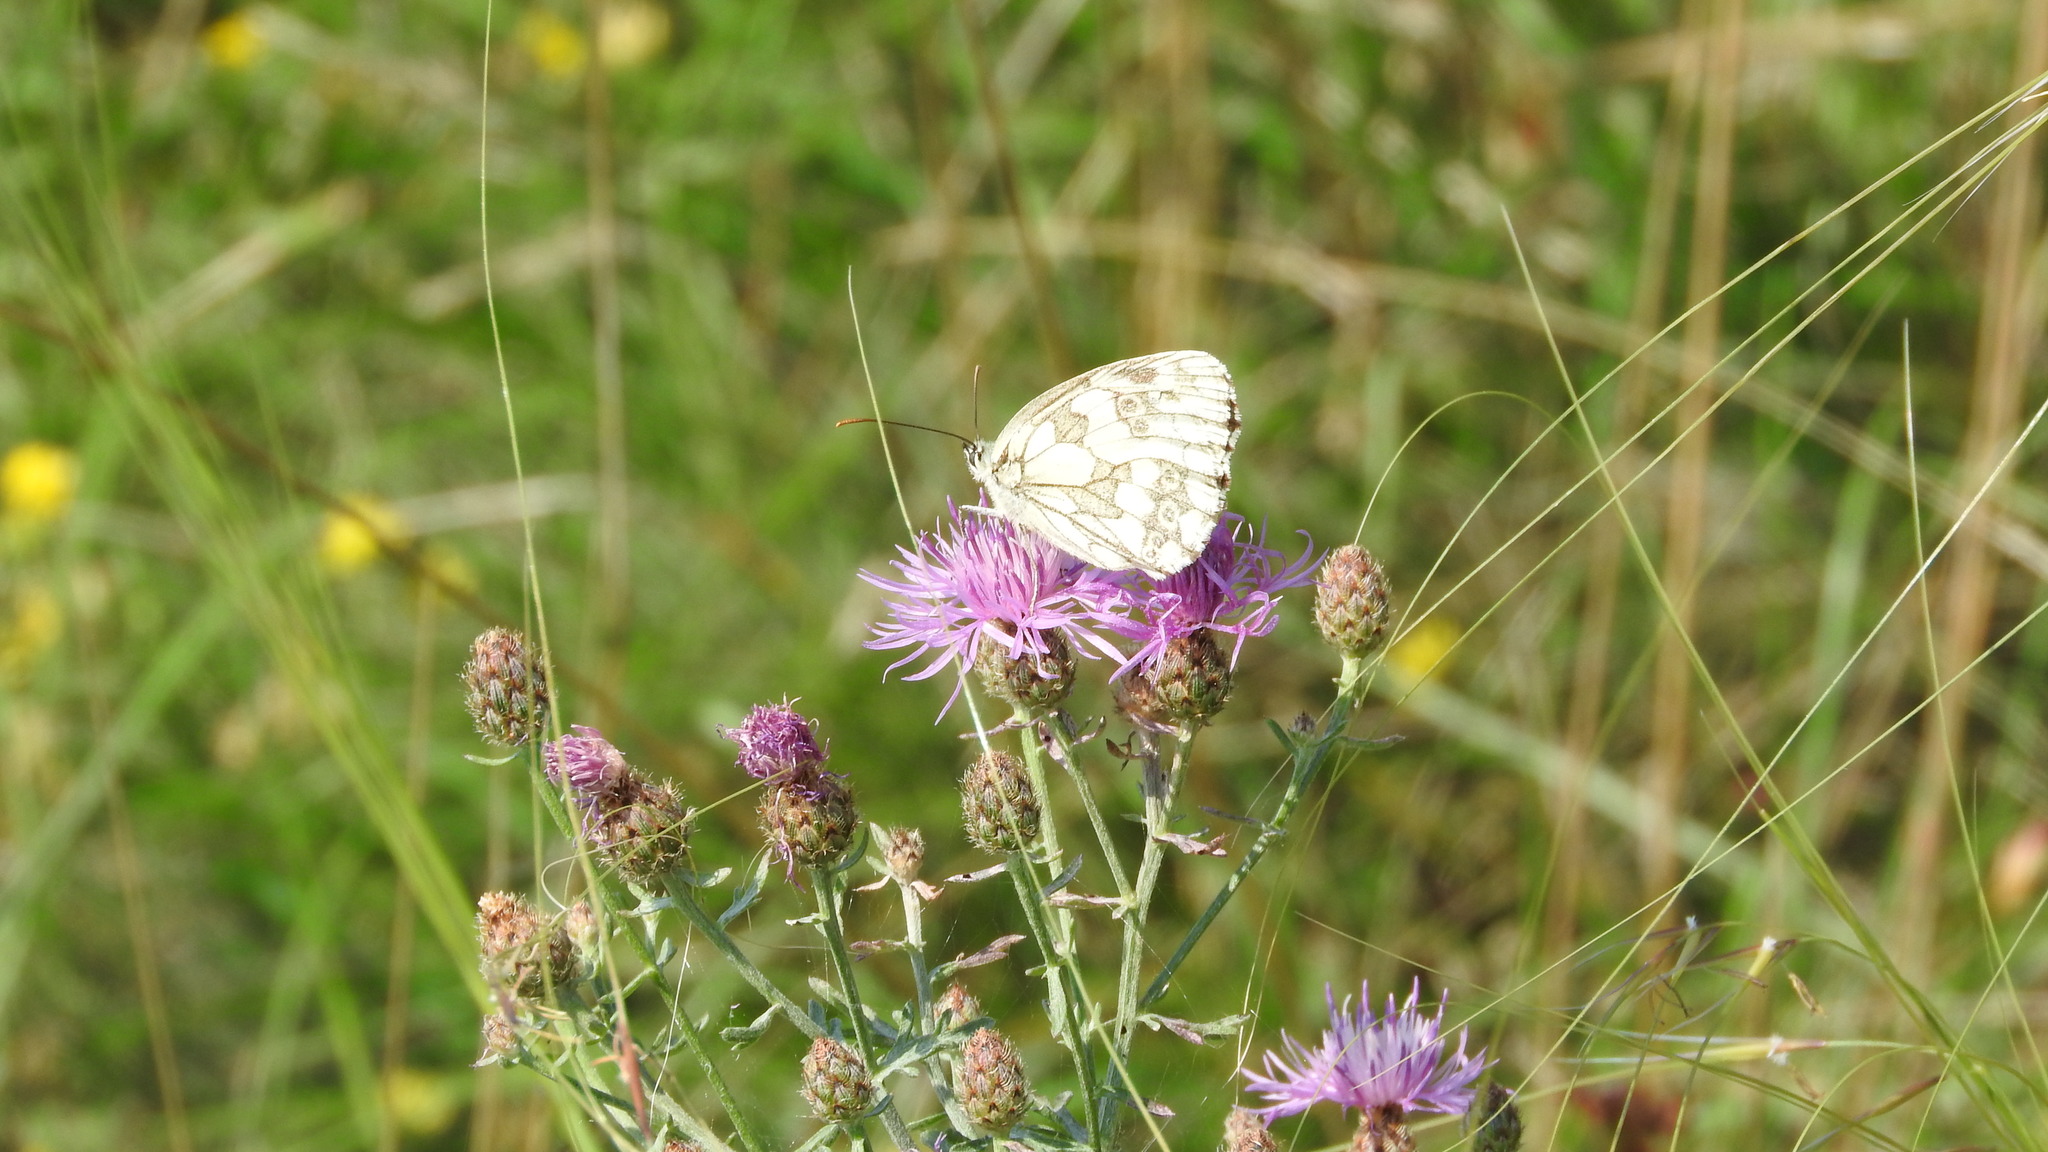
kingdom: Animalia
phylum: Arthropoda
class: Insecta
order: Lepidoptera
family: Nymphalidae
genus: Melanargia
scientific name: Melanargia galathea
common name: Marbled white
